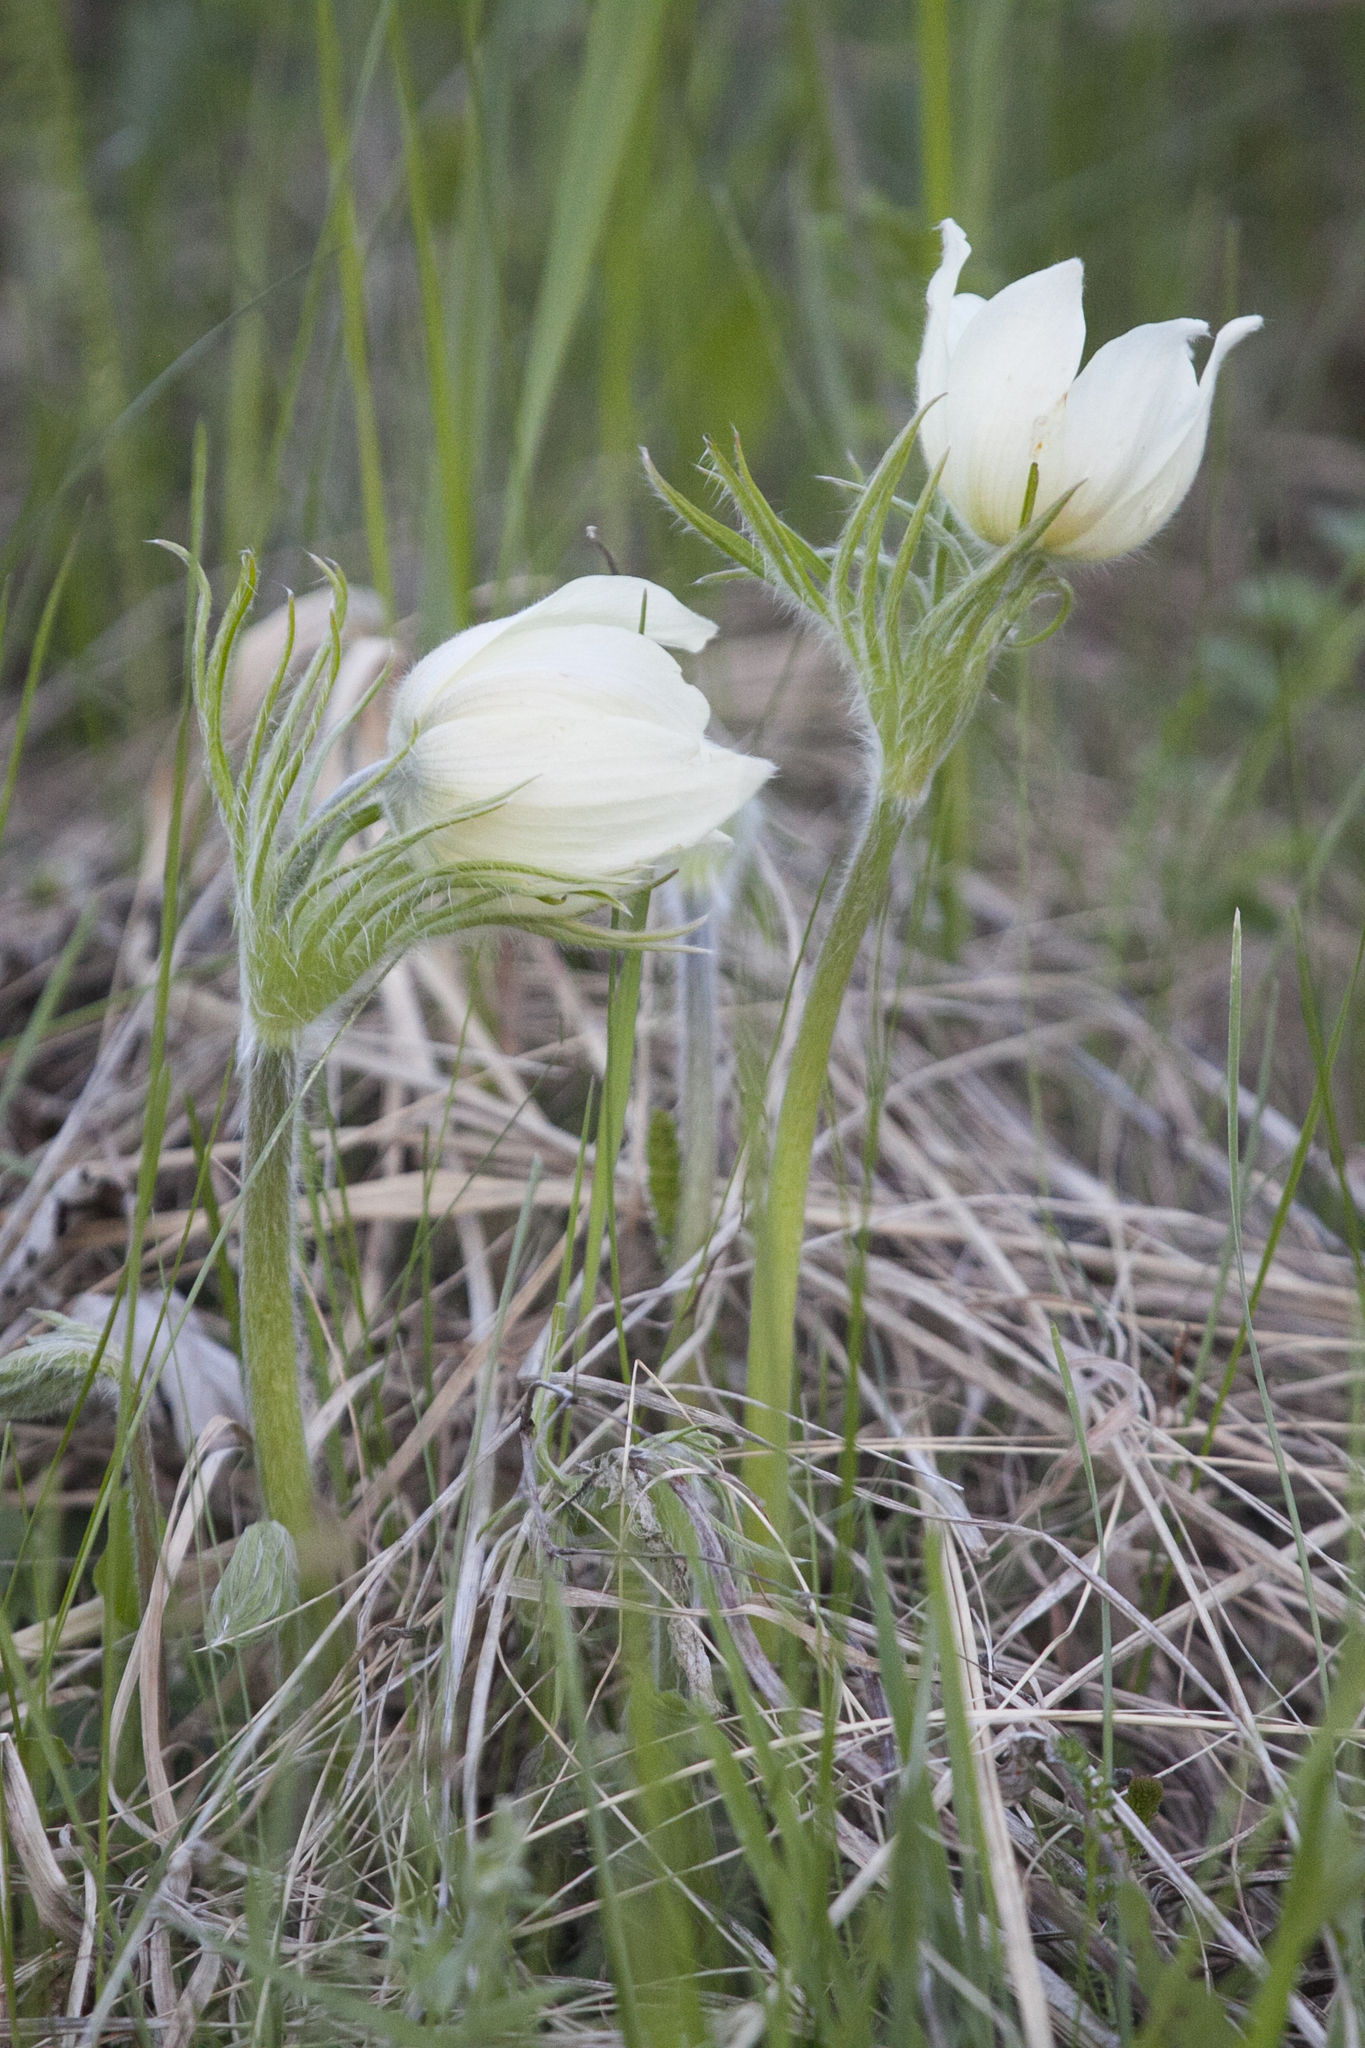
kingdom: Plantae
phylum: Tracheophyta
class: Magnoliopsida
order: Ranunculales
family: Ranunculaceae
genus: Pulsatilla
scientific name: Pulsatilla patens
